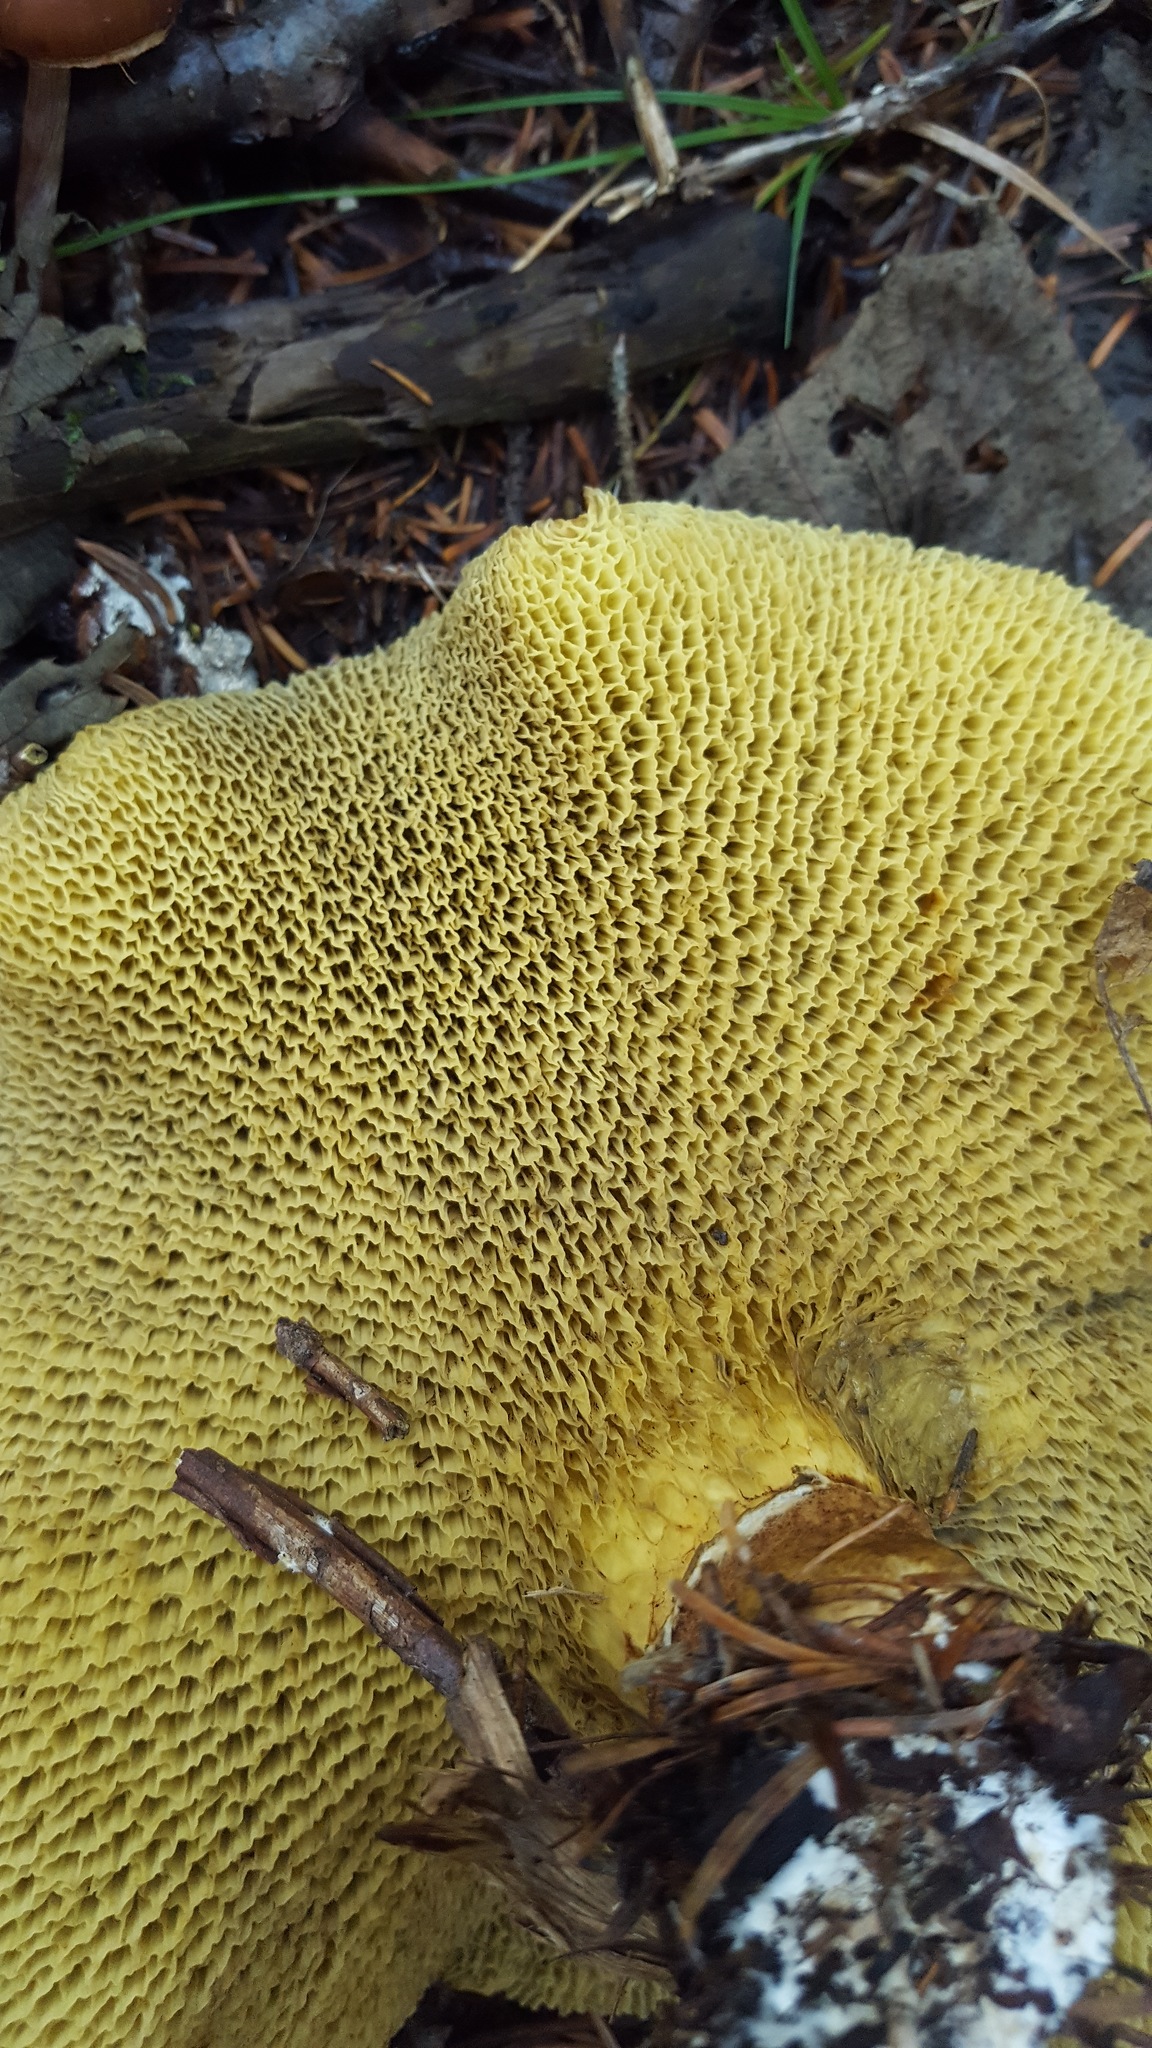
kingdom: Fungi
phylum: Basidiomycota
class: Agaricomycetes
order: Boletales
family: Boletinellaceae
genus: Boletinellus
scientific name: Boletinellus merulioides
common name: Ash tree bolete
